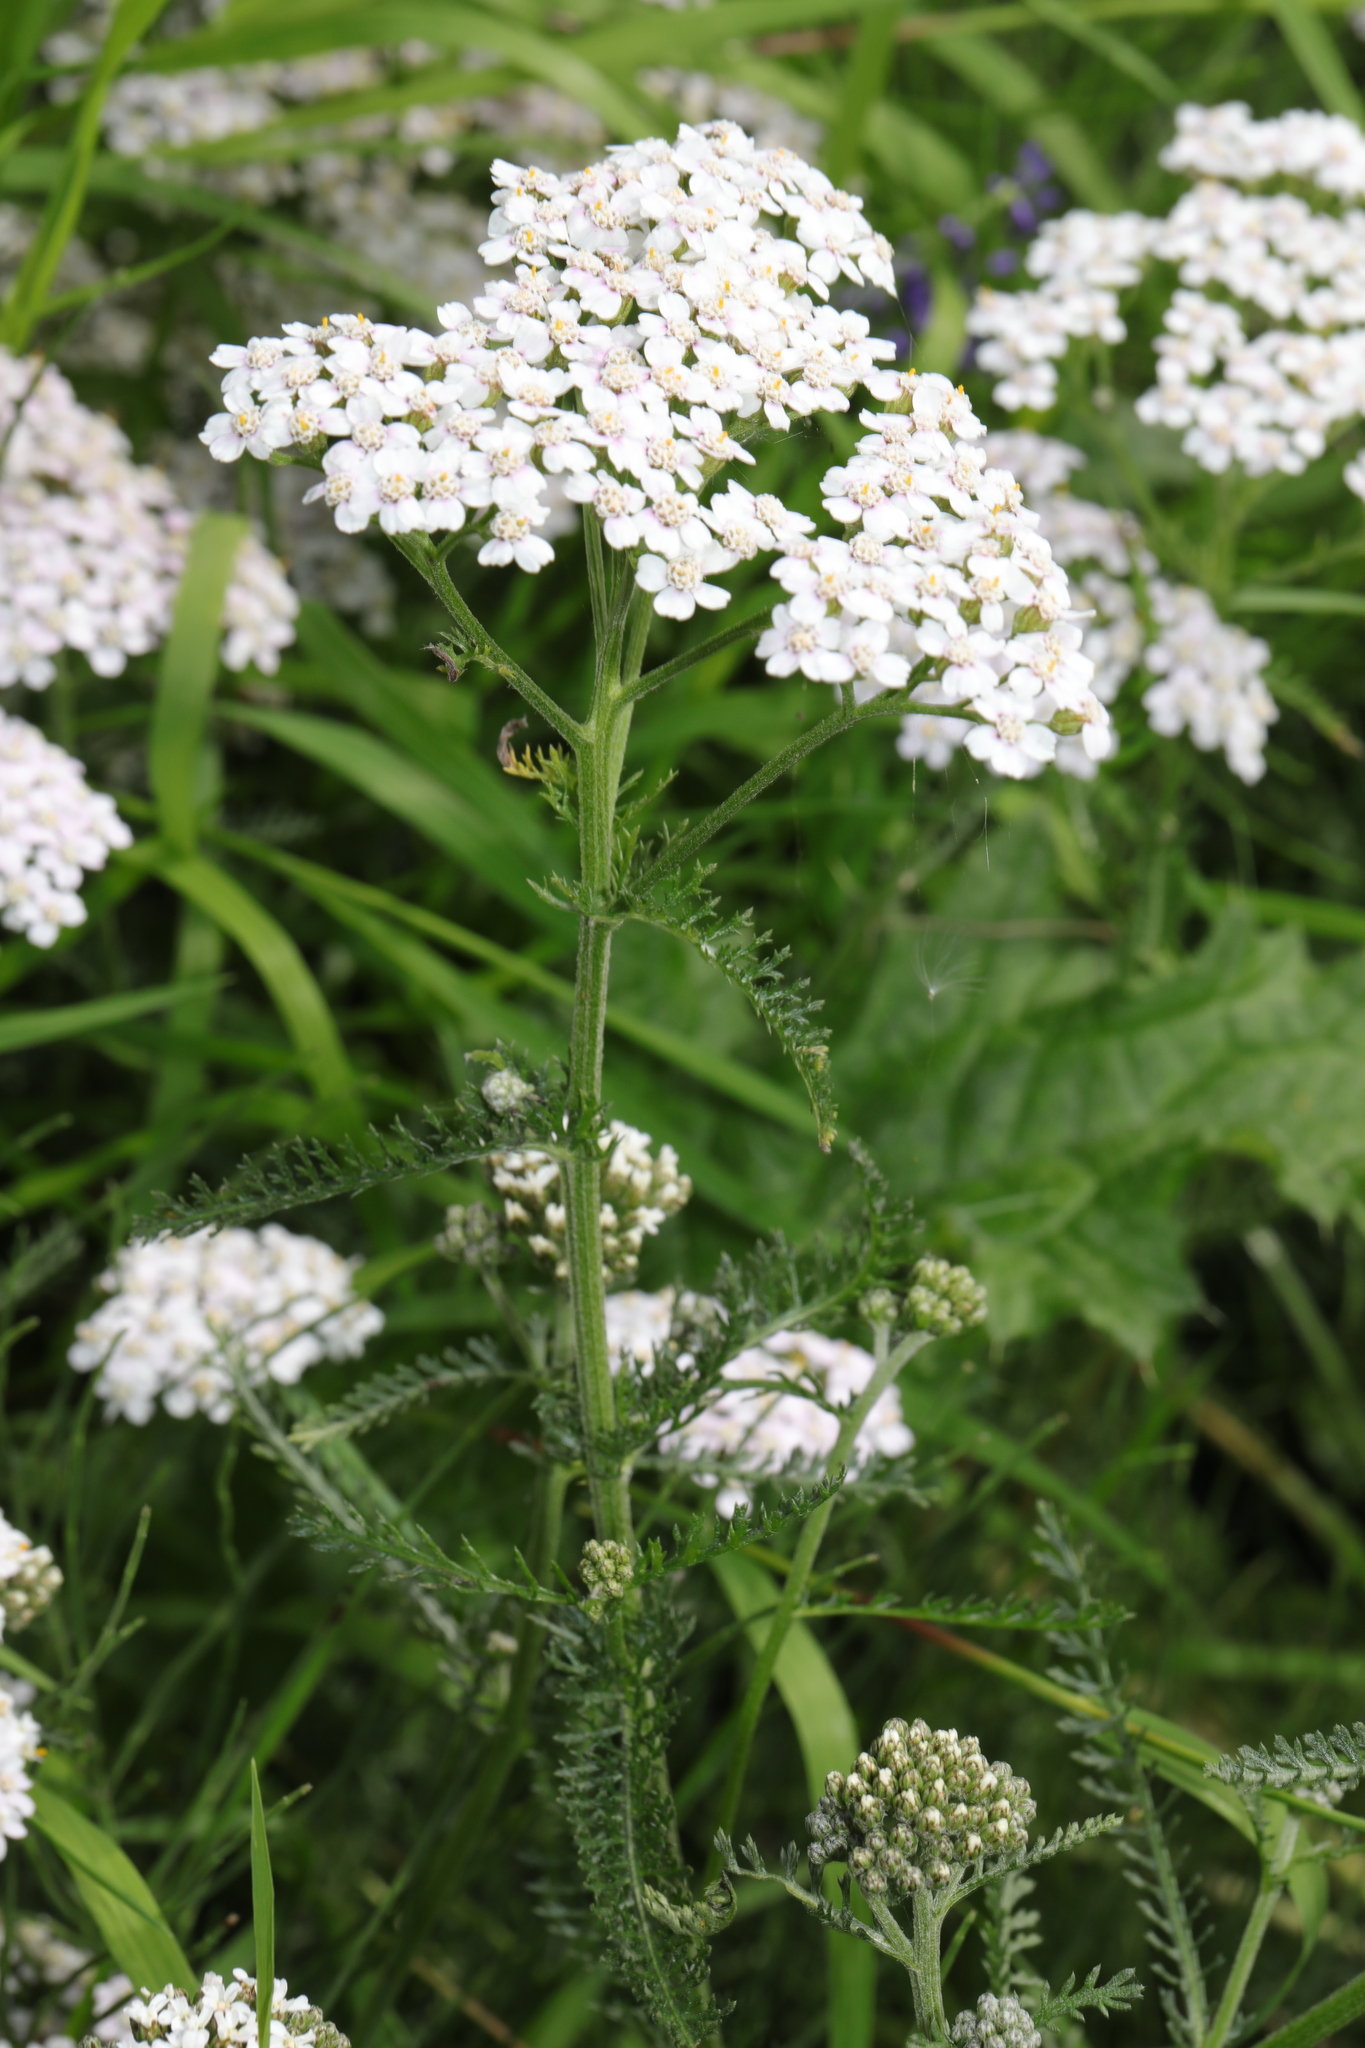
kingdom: Plantae
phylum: Tracheophyta
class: Magnoliopsida
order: Asterales
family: Asteraceae
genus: Achillea
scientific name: Achillea millefolium
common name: Yarrow
